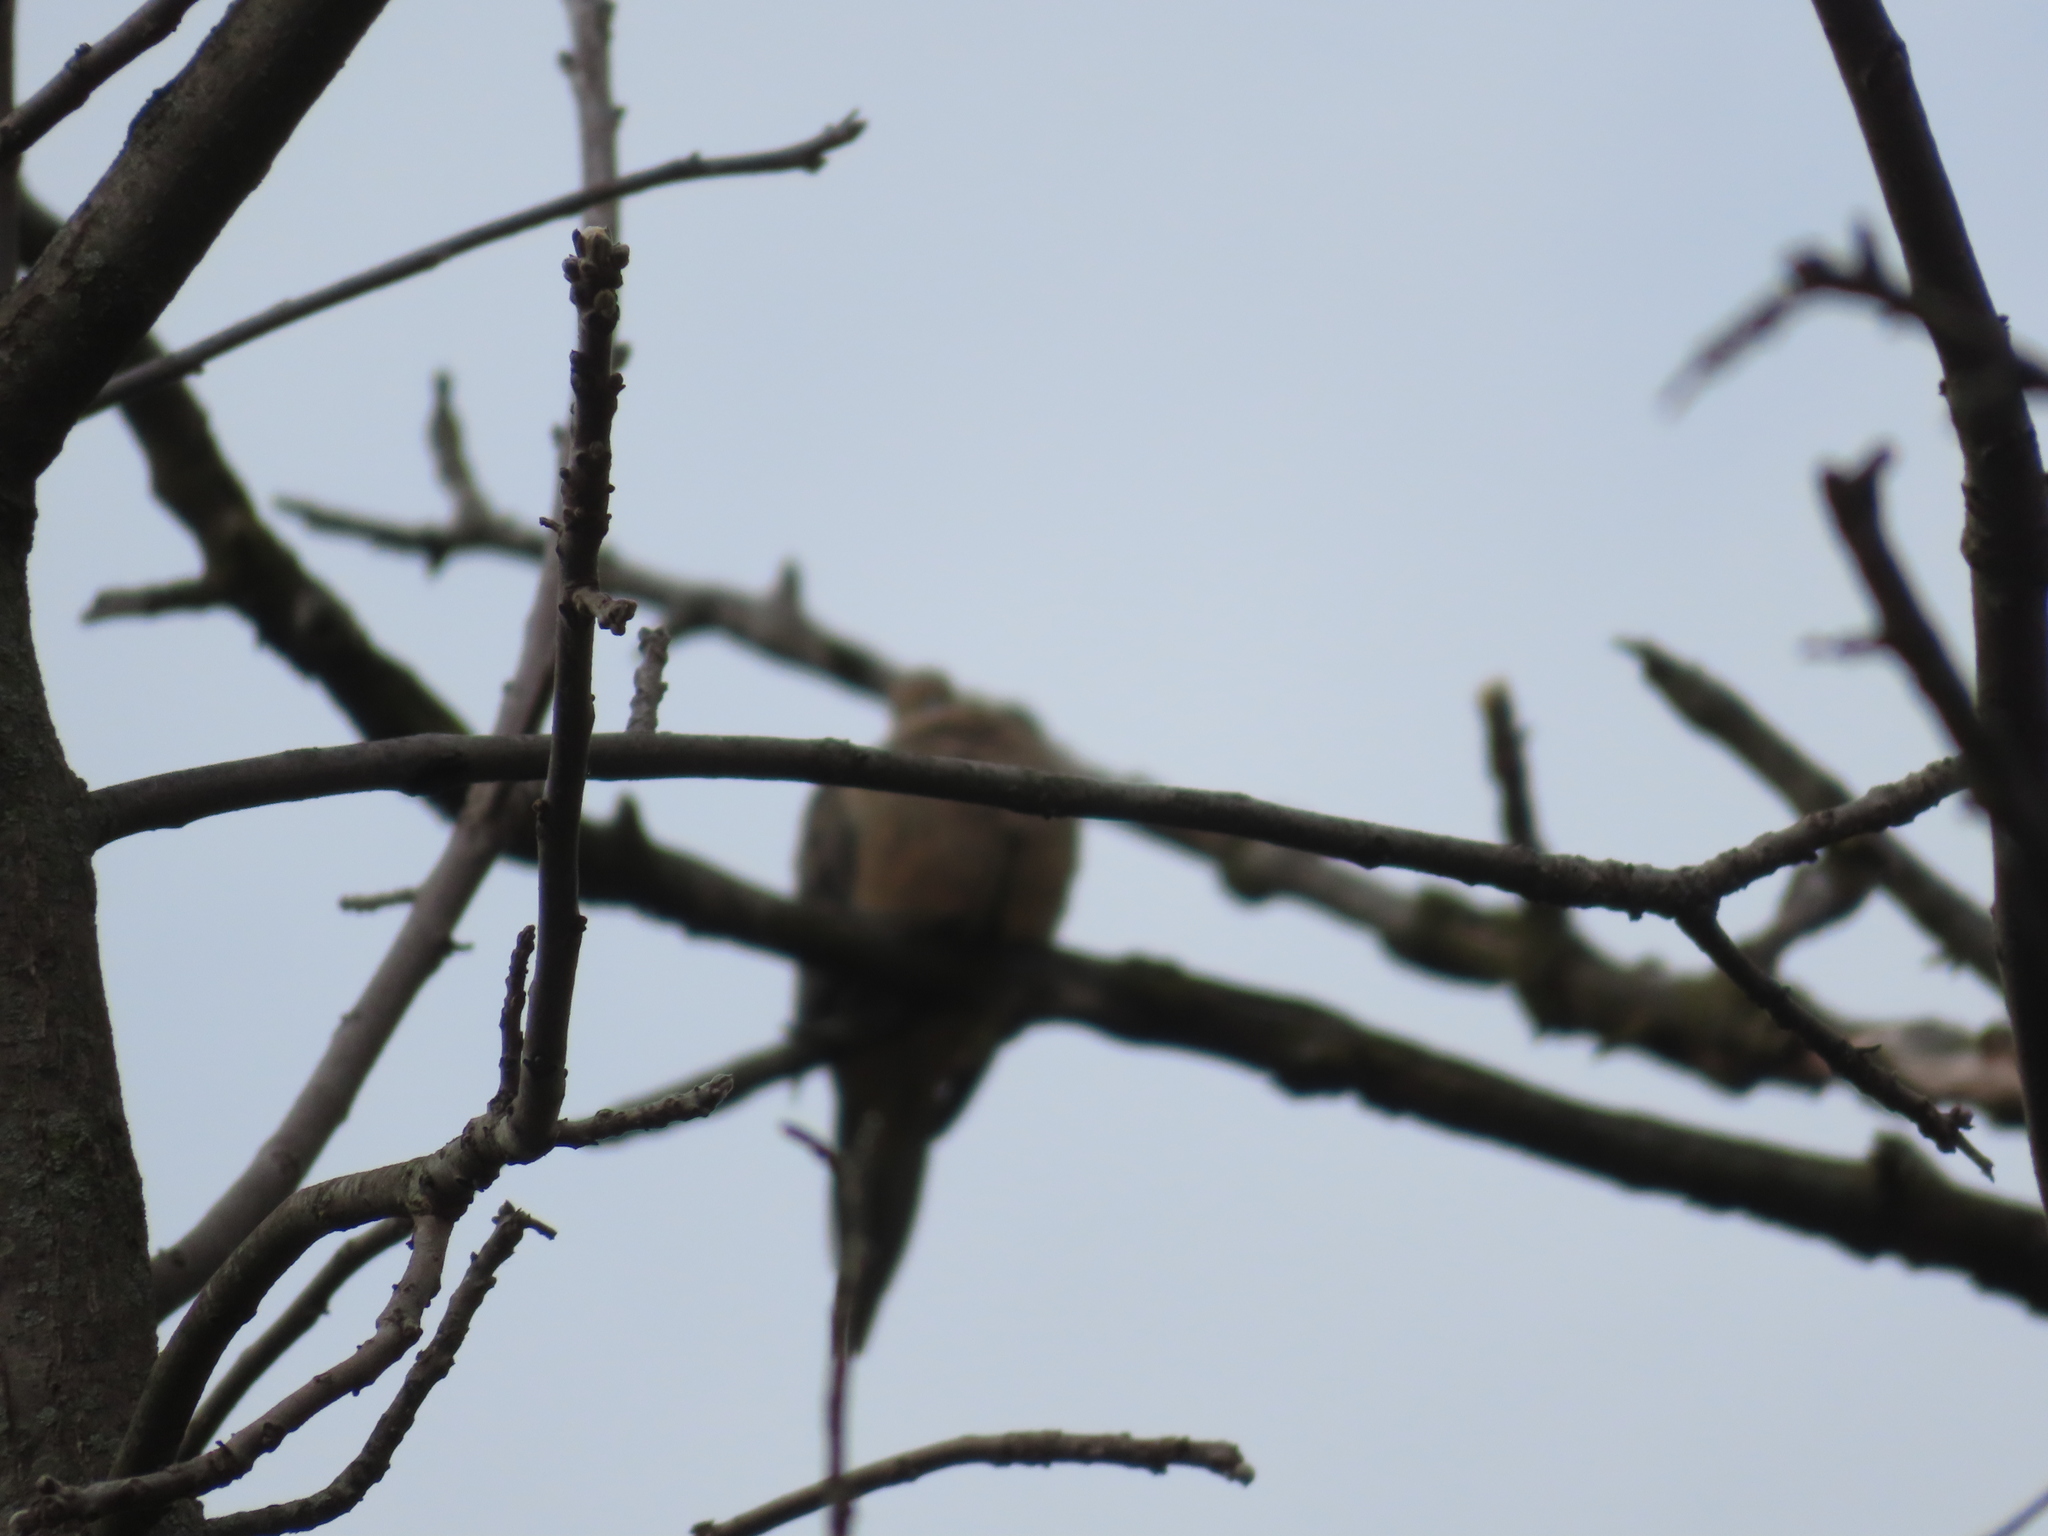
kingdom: Animalia
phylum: Chordata
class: Aves
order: Columbiformes
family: Columbidae
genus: Zenaida
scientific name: Zenaida macroura
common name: Mourning dove
